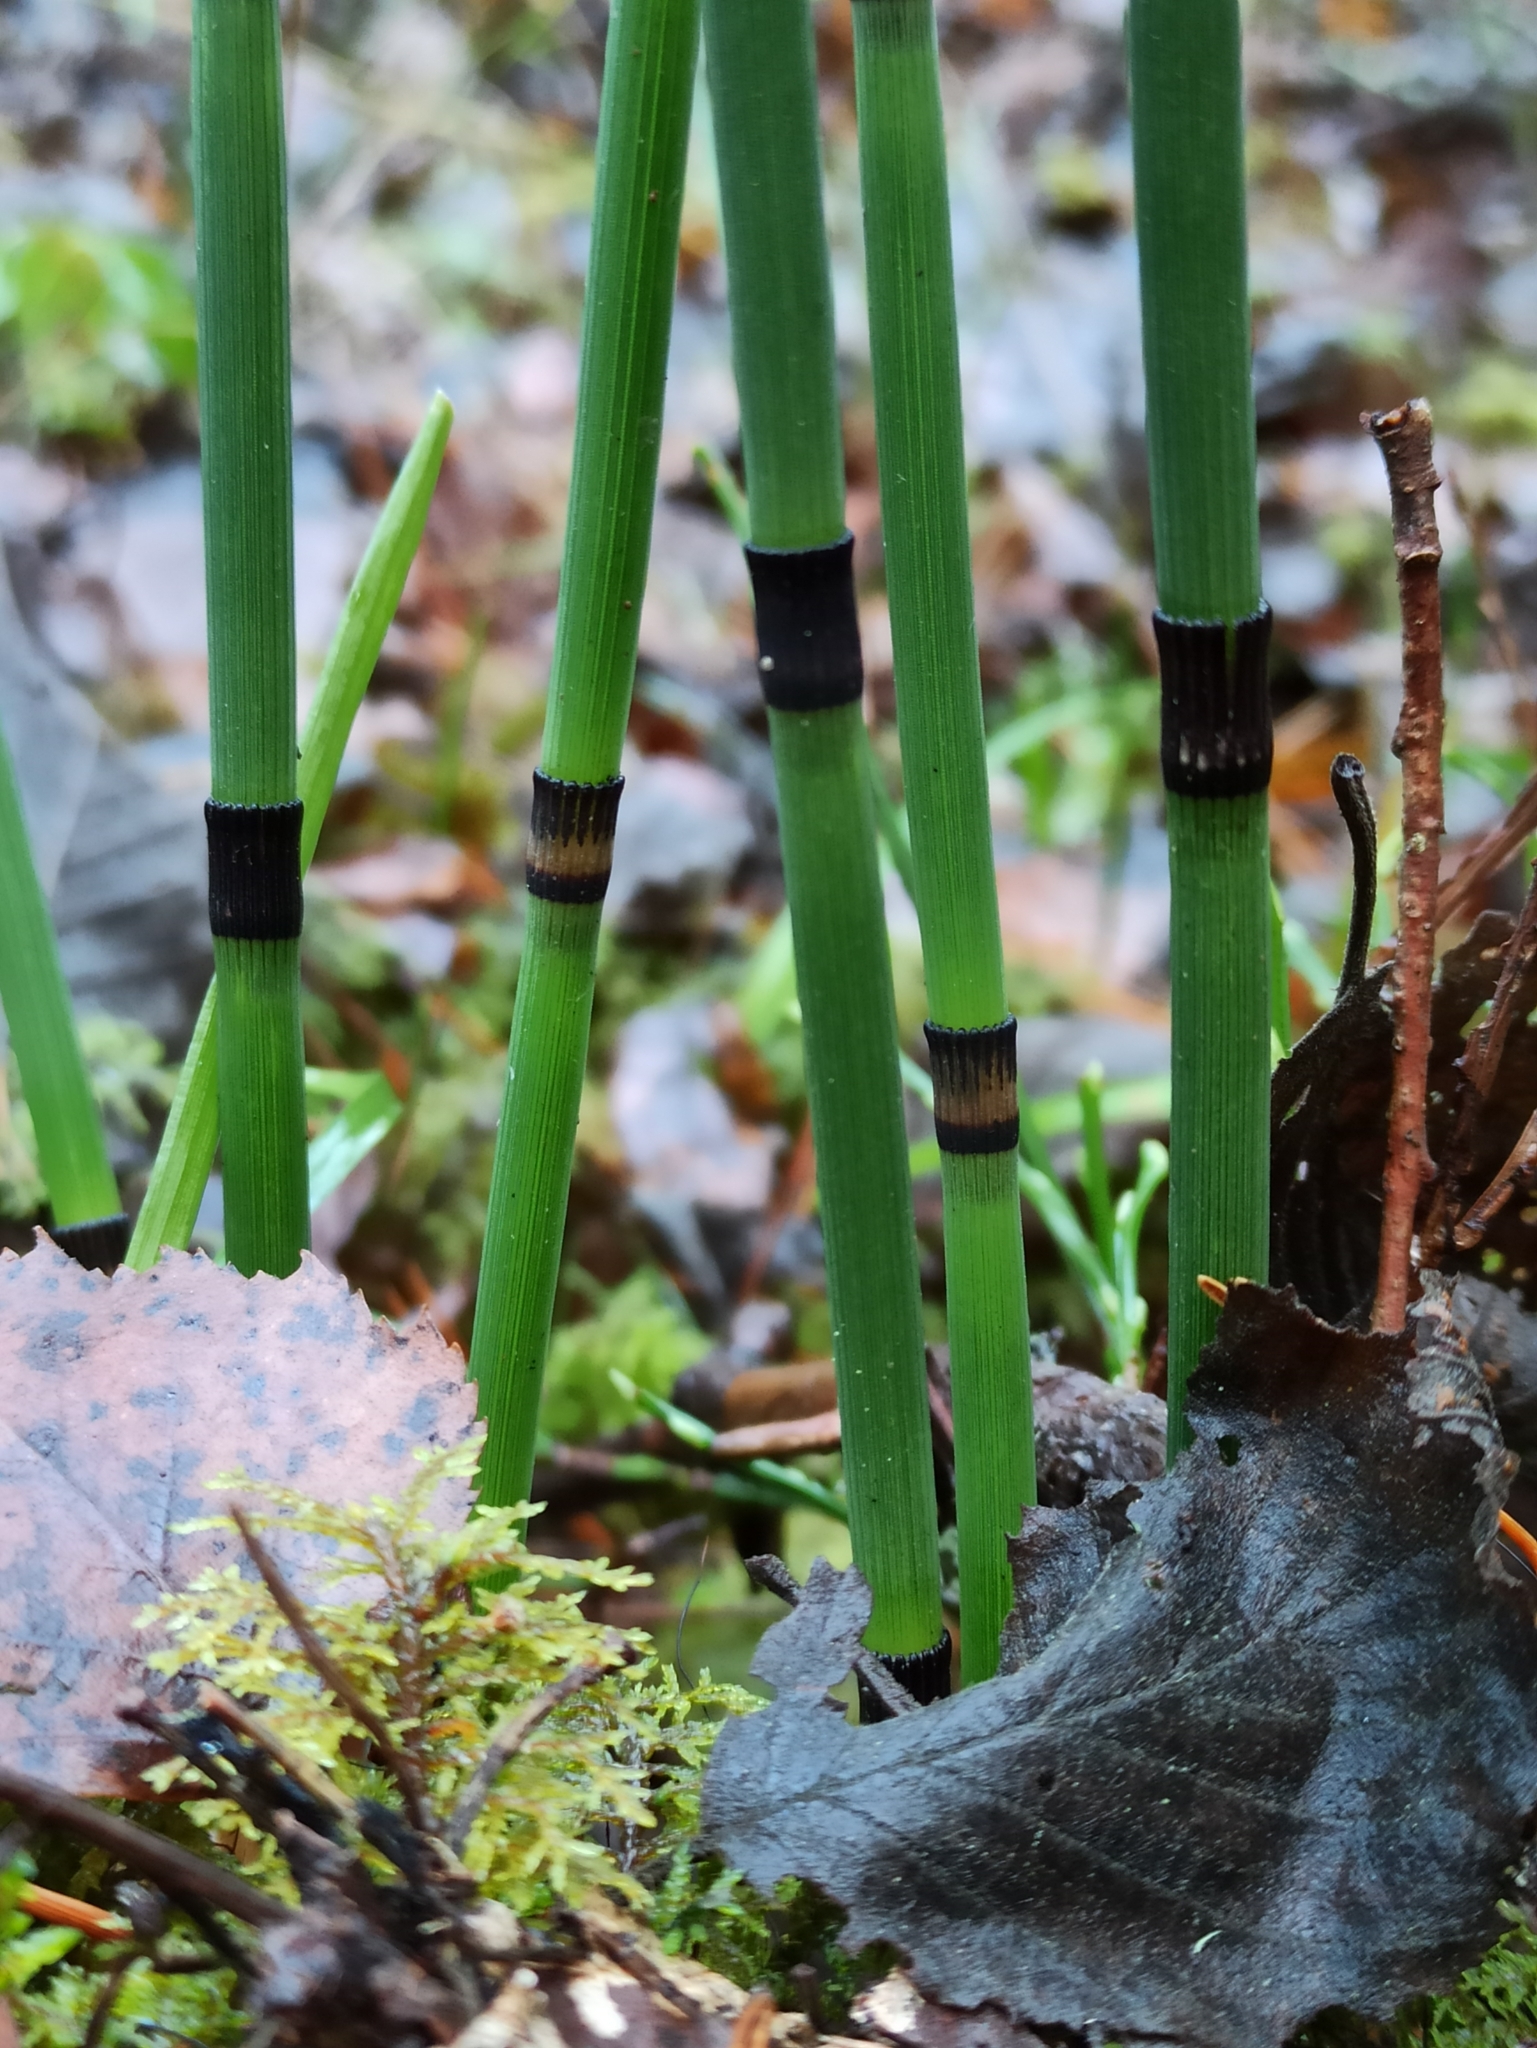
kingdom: Plantae
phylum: Tracheophyta
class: Polypodiopsida
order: Equisetales
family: Equisetaceae
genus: Equisetum
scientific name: Equisetum hyemale
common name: Rough horsetail
